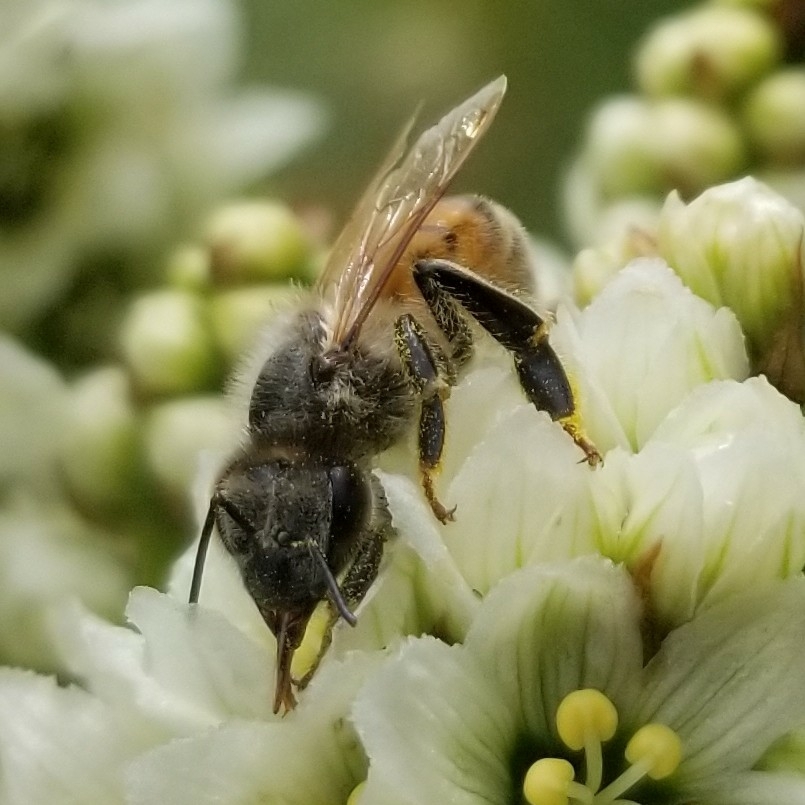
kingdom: Animalia
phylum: Arthropoda
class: Insecta
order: Hymenoptera
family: Apidae
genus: Apis
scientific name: Apis mellifera
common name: Honey bee
